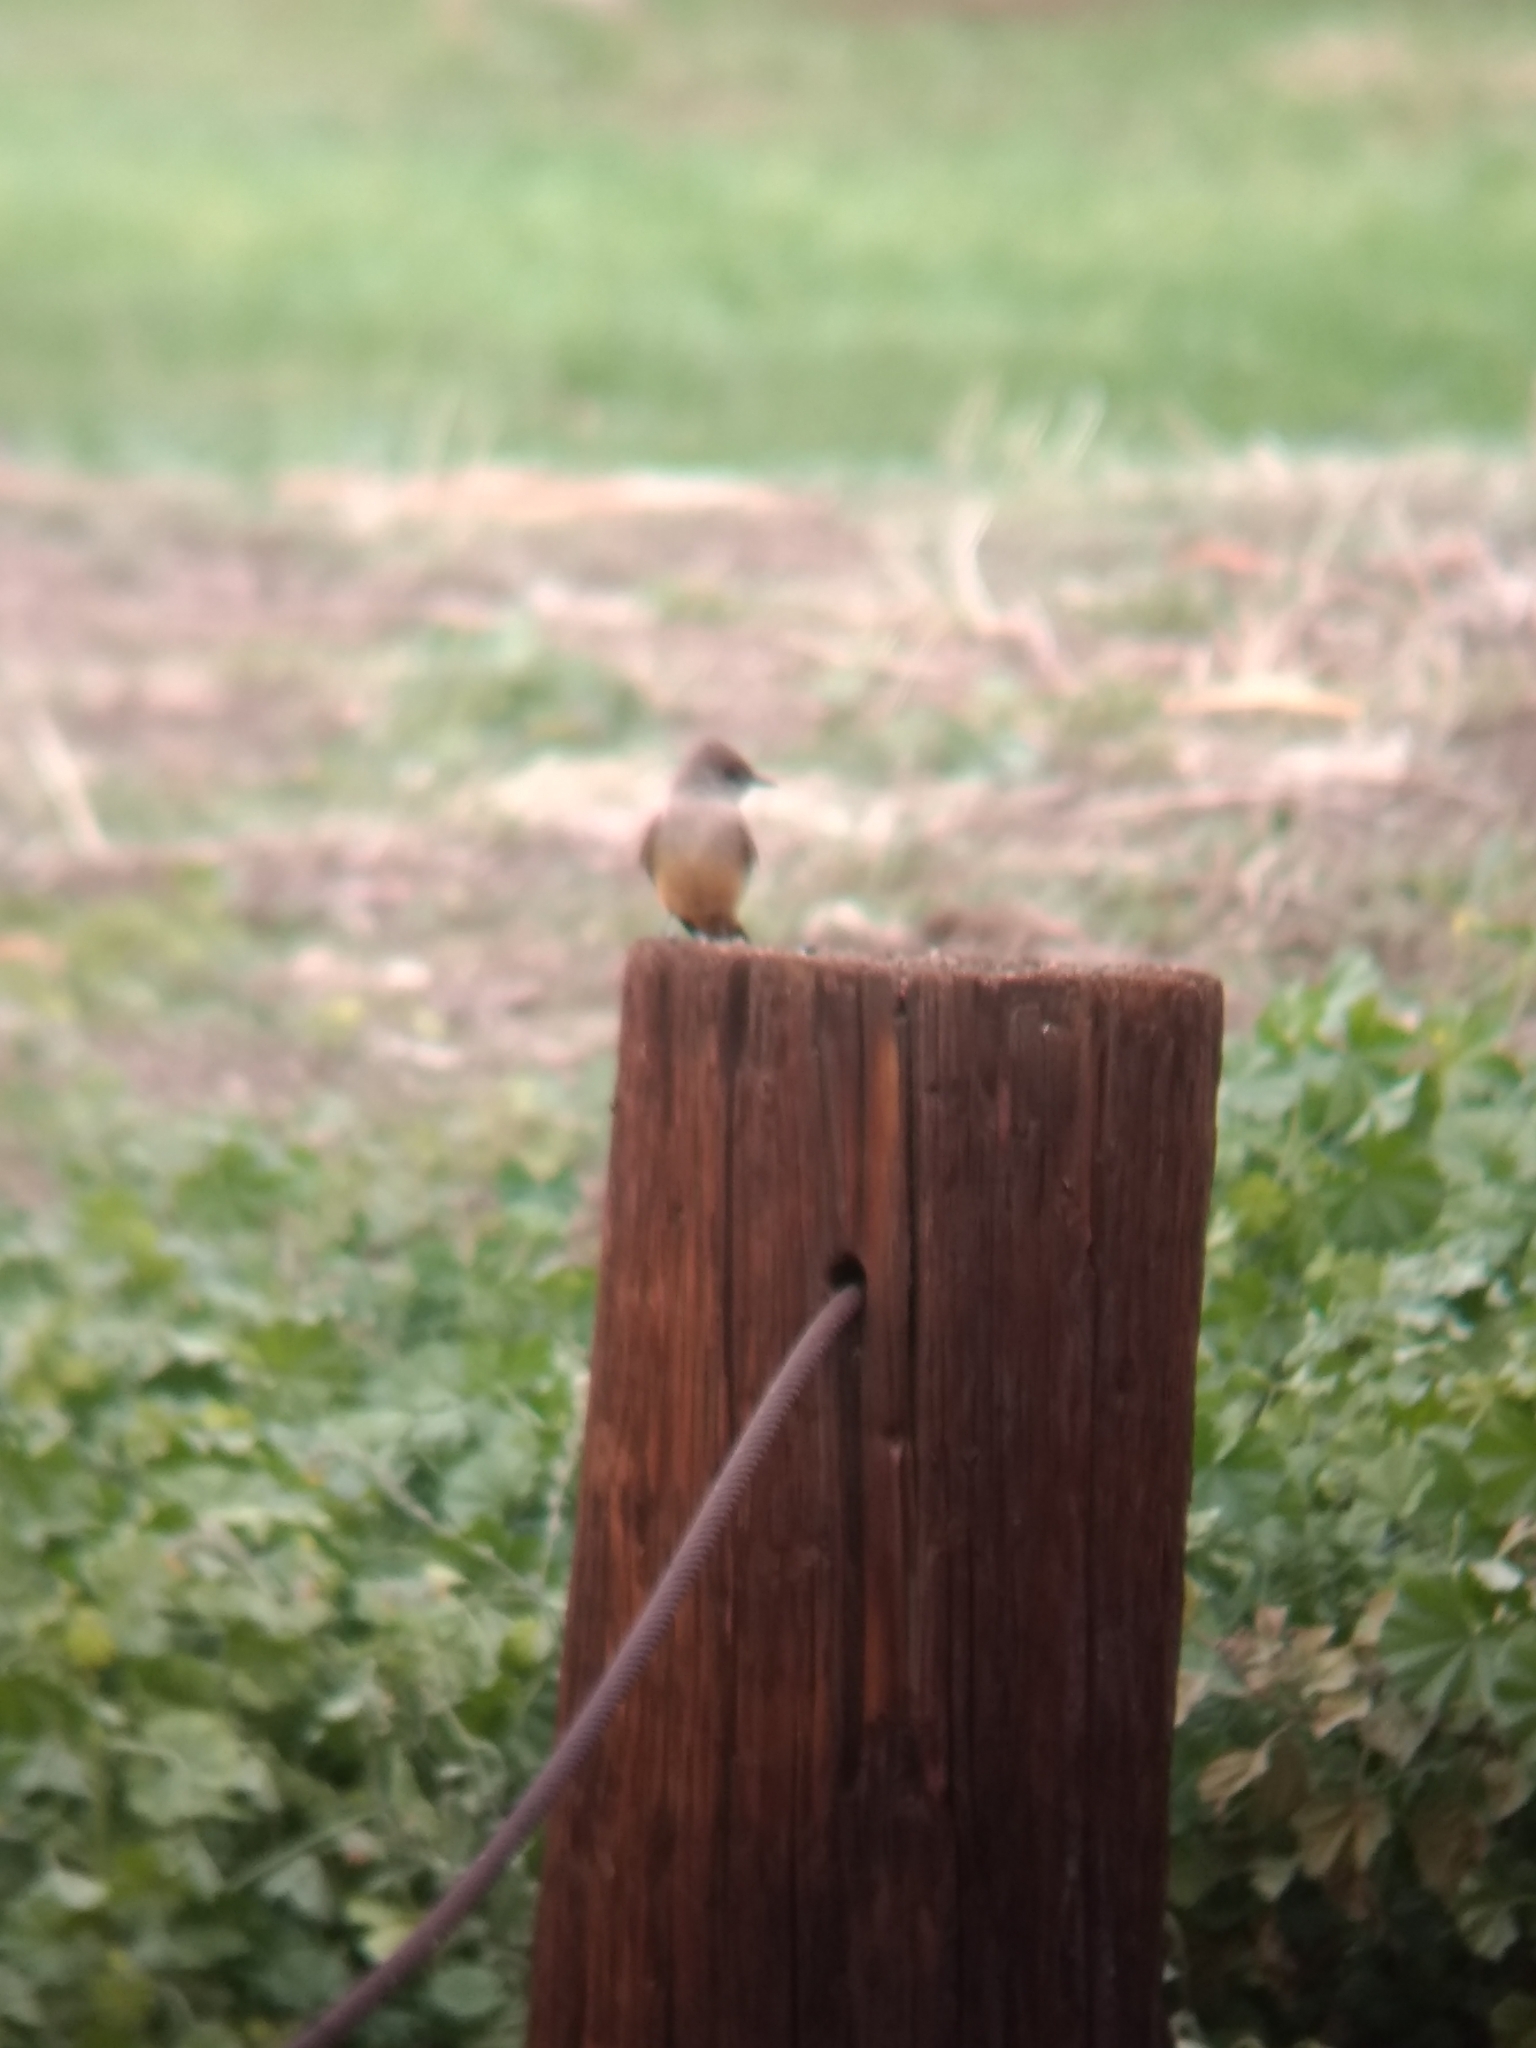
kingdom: Animalia
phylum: Chordata
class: Aves
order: Passeriformes
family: Tyrannidae
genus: Sayornis
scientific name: Sayornis saya
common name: Say's phoebe
